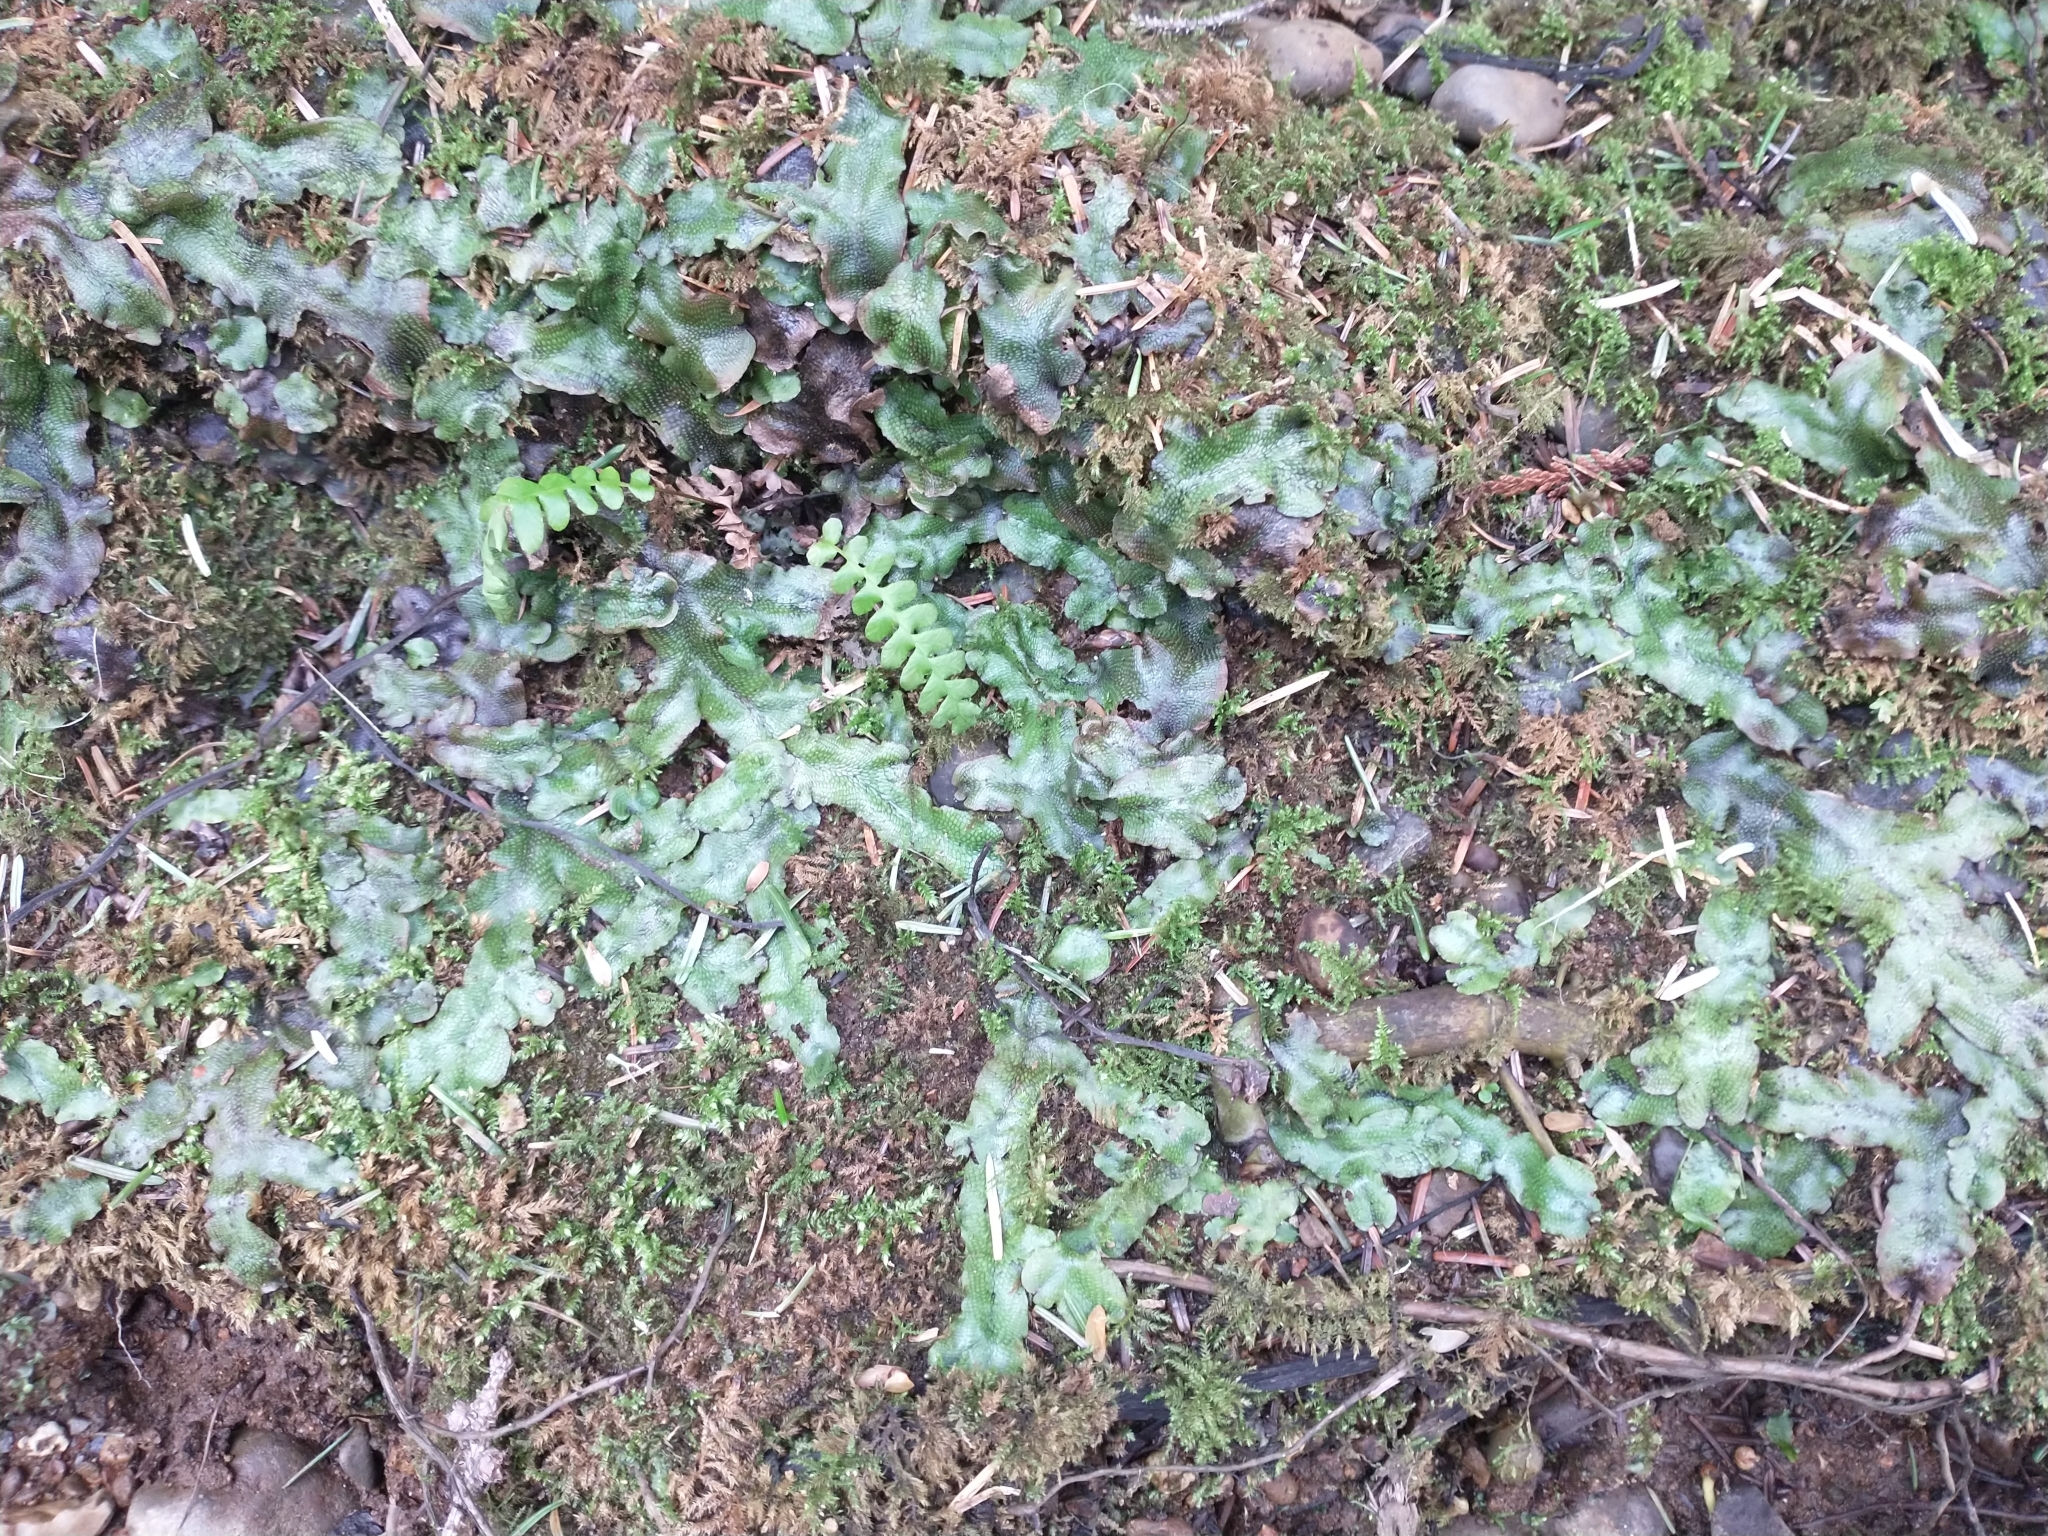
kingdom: Plantae
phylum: Tracheophyta
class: Polypodiopsida
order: Polypodiales
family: Blechnaceae
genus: Struthiopteris
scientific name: Struthiopteris spicant
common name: Deer fern
